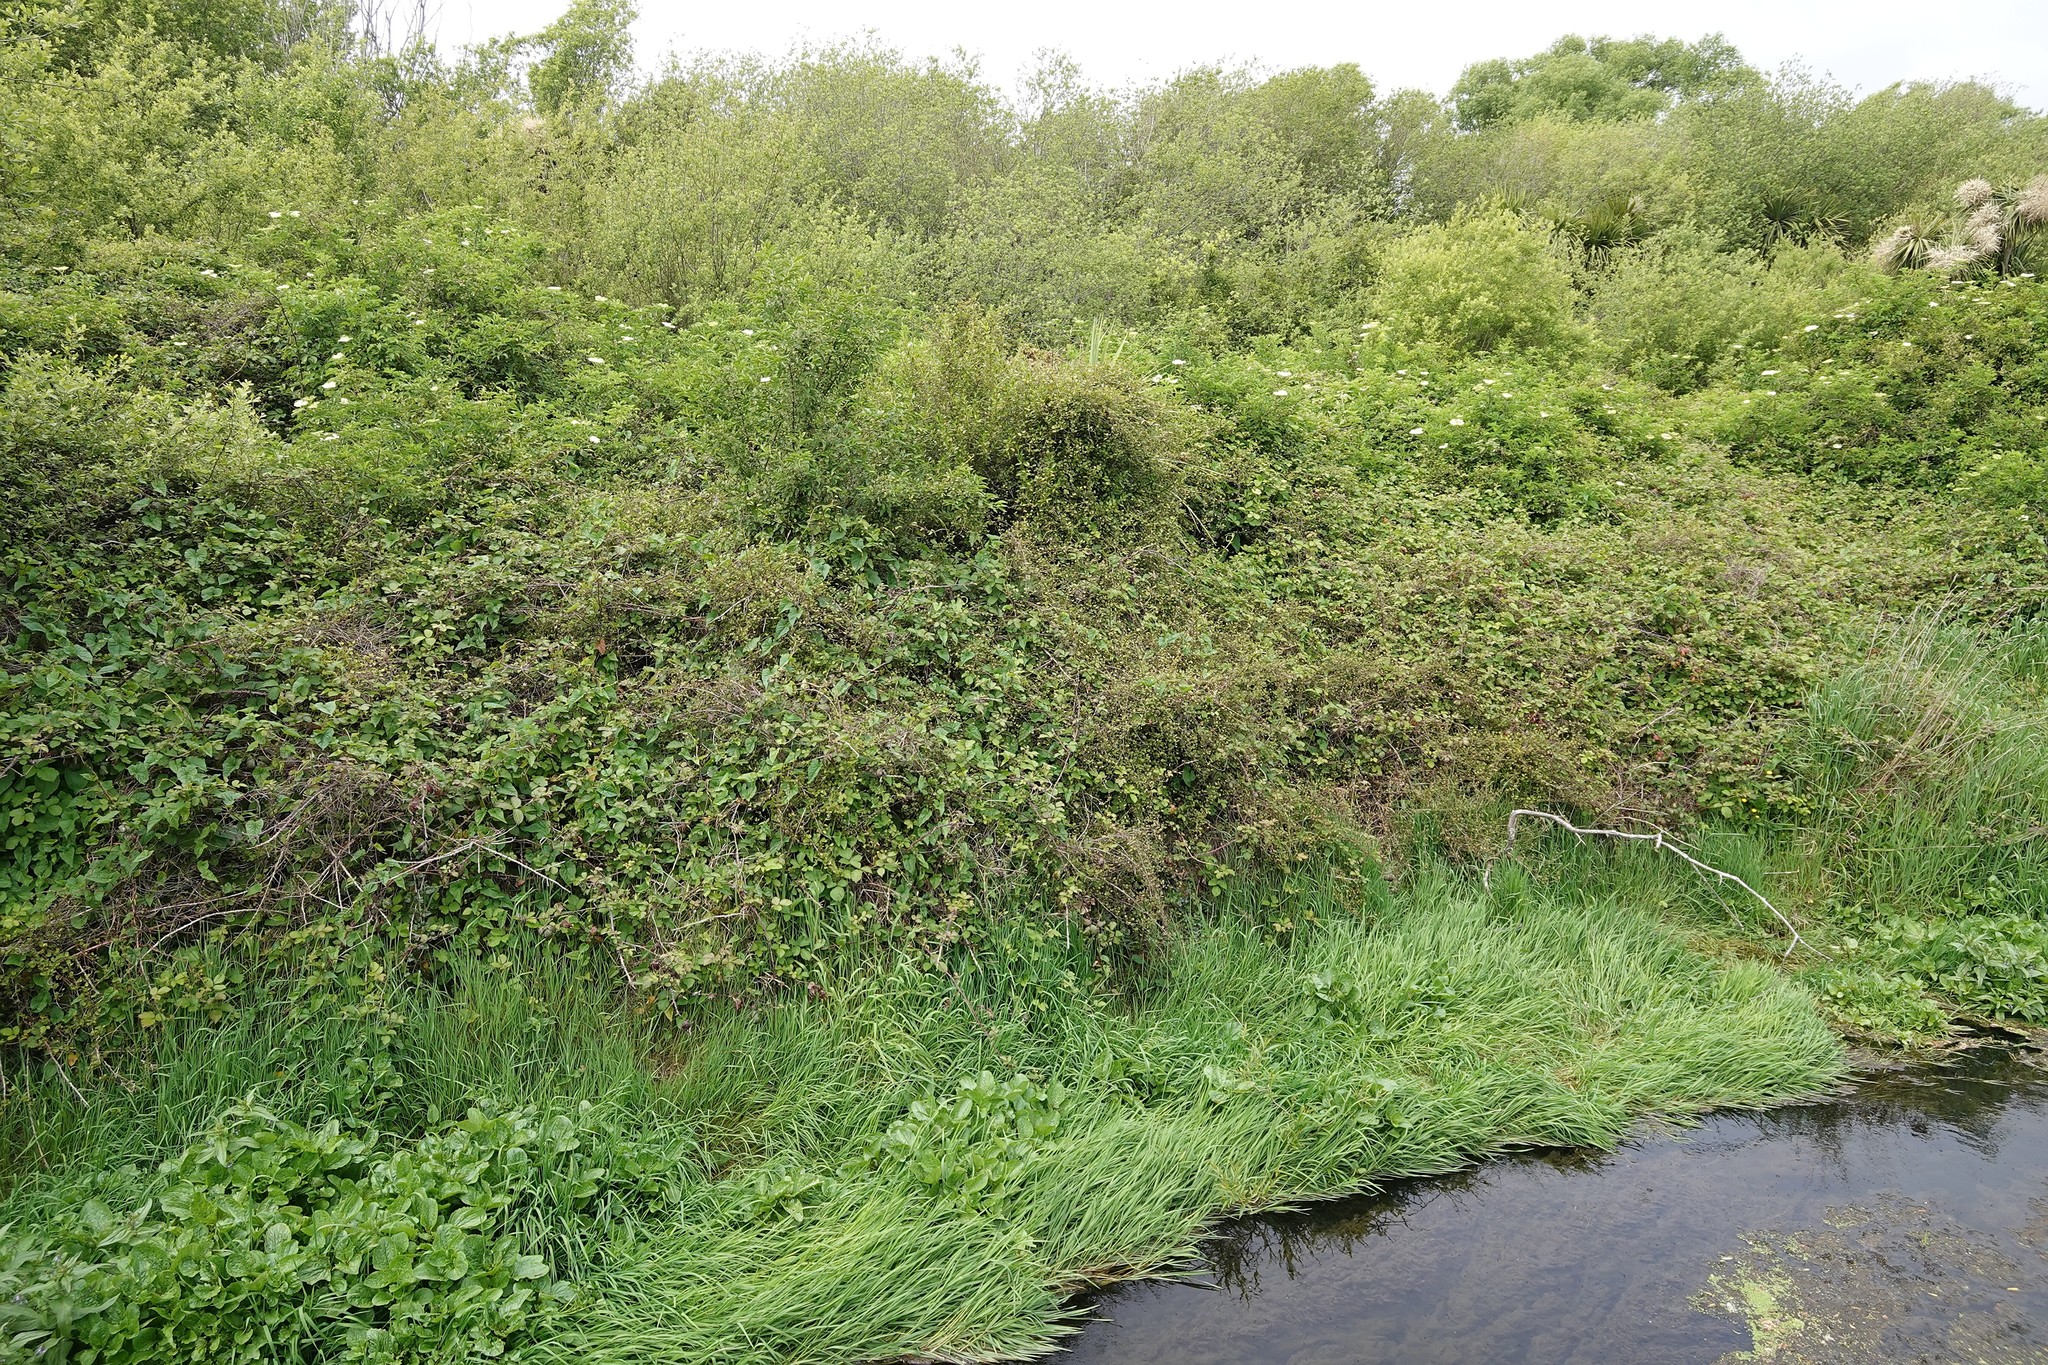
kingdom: Plantae
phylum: Tracheophyta
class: Magnoliopsida
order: Caryophyllales
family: Polygonaceae
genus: Muehlenbeckia
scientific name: Muehlenbeckia australis
